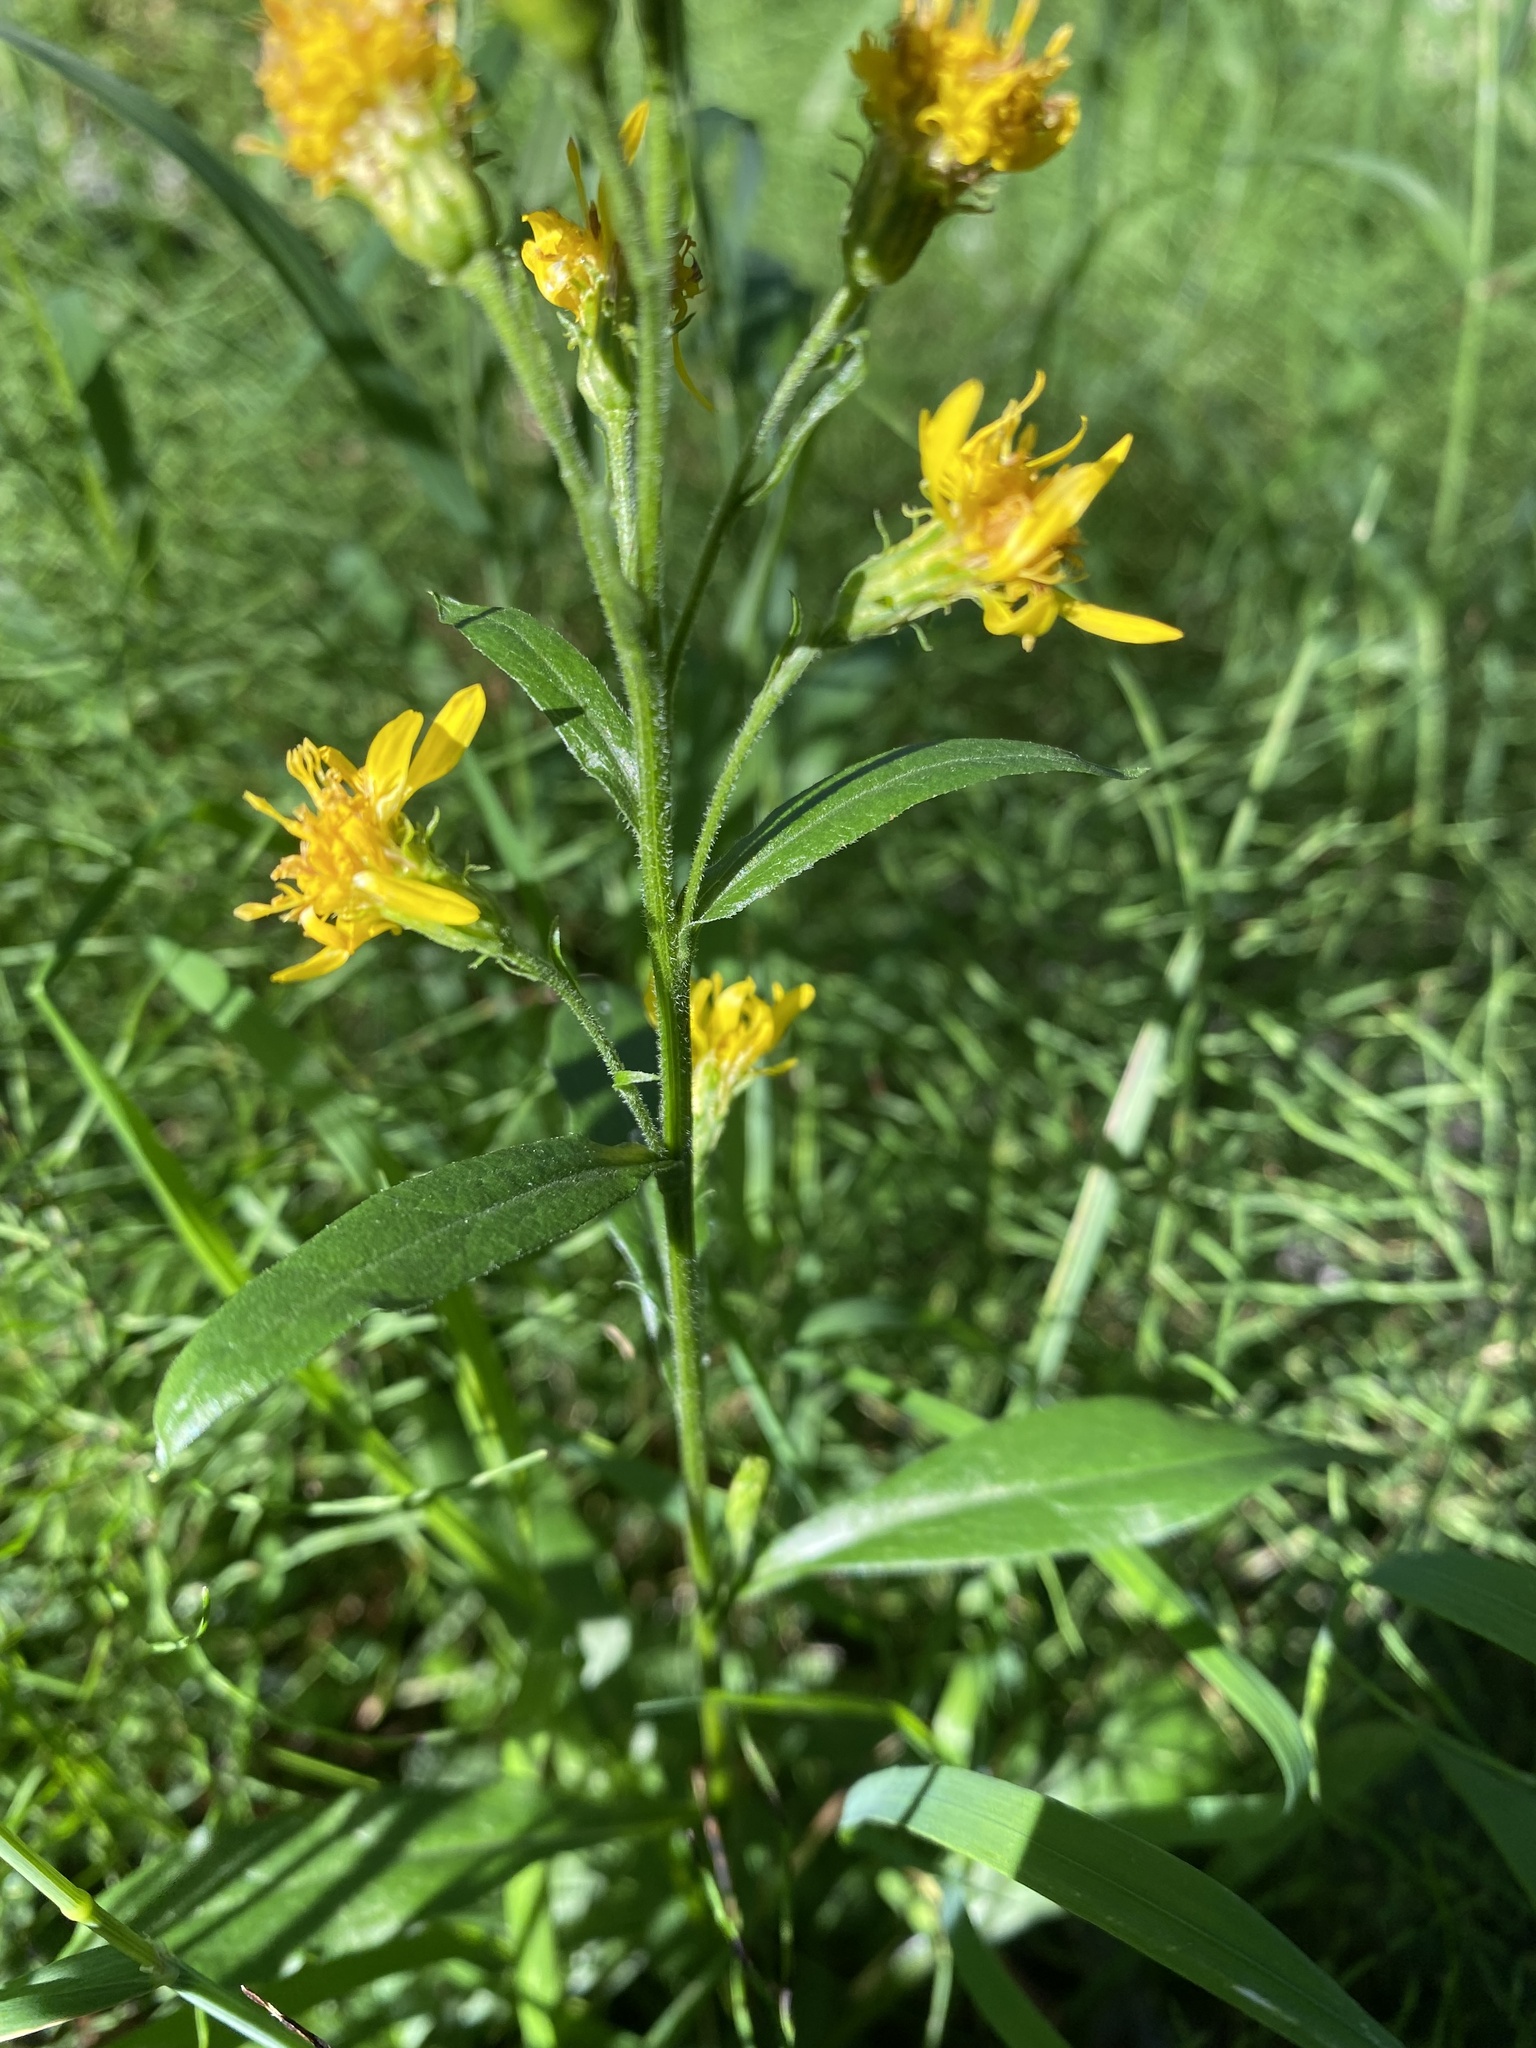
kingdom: Plantae
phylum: Tracheophyta
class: Magnoliopsida
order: Asterales
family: Asteraceae
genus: Solidago
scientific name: Solidago dahurica
